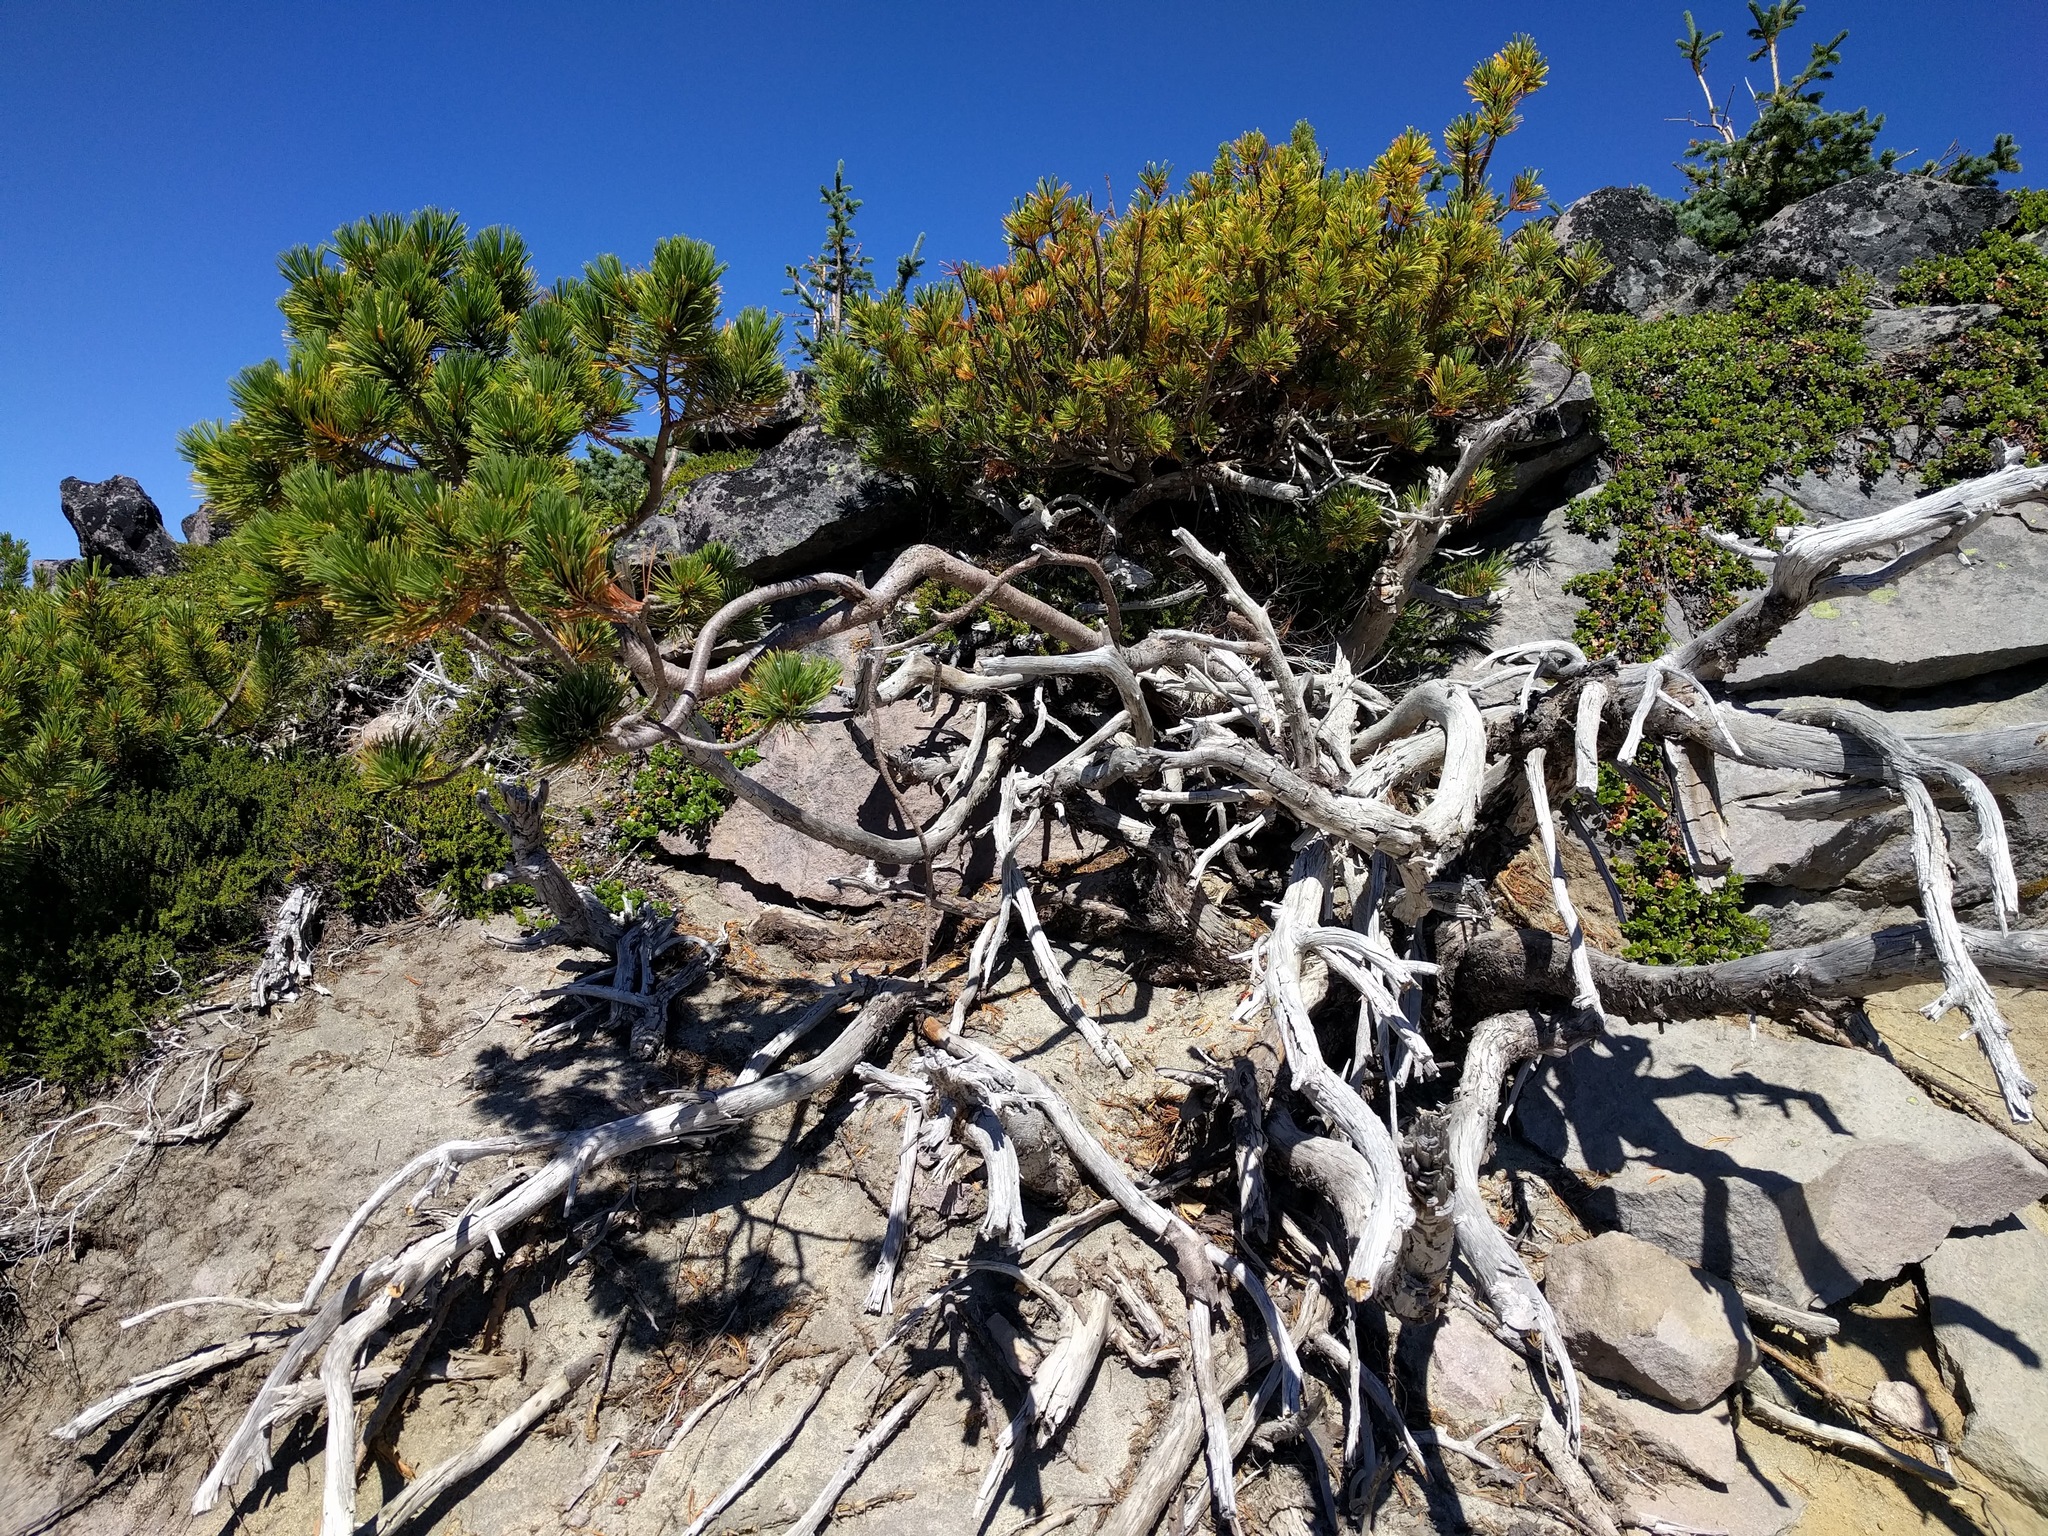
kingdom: Plantae
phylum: Tracheophyta
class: Pinopsida
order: Pinales
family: Pinaceae
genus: Pinus
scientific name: Pinus albicaulis
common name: Whitebark pine
